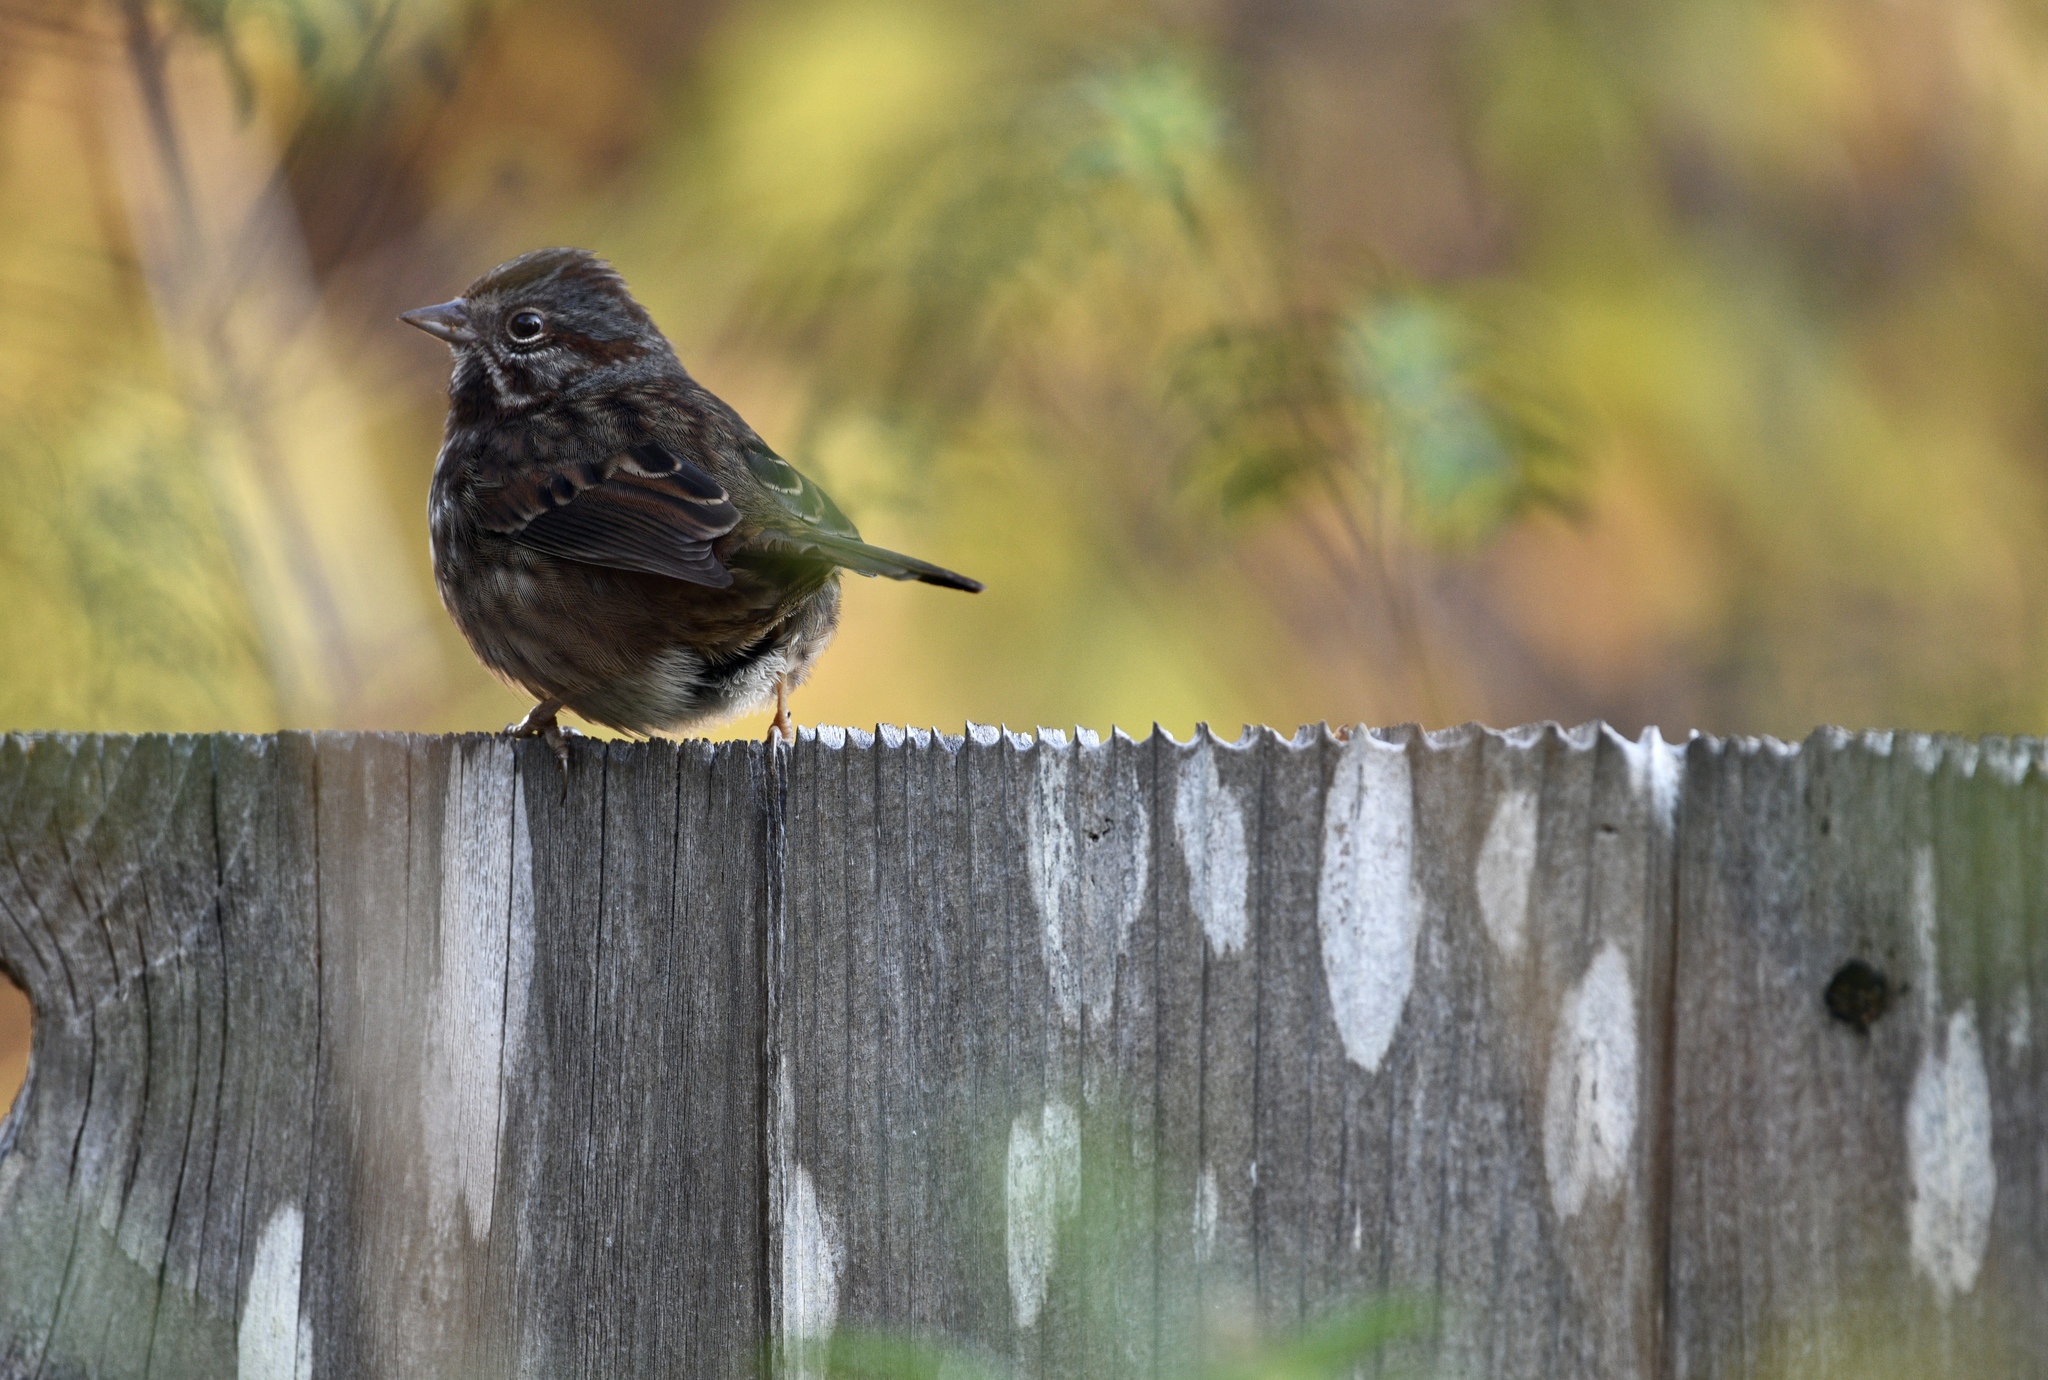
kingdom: Animalia
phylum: Chordata
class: Aves
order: Passeriformes
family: Passerellidae
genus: Melospiza
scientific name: Melospiza melodia
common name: Song sparrow
